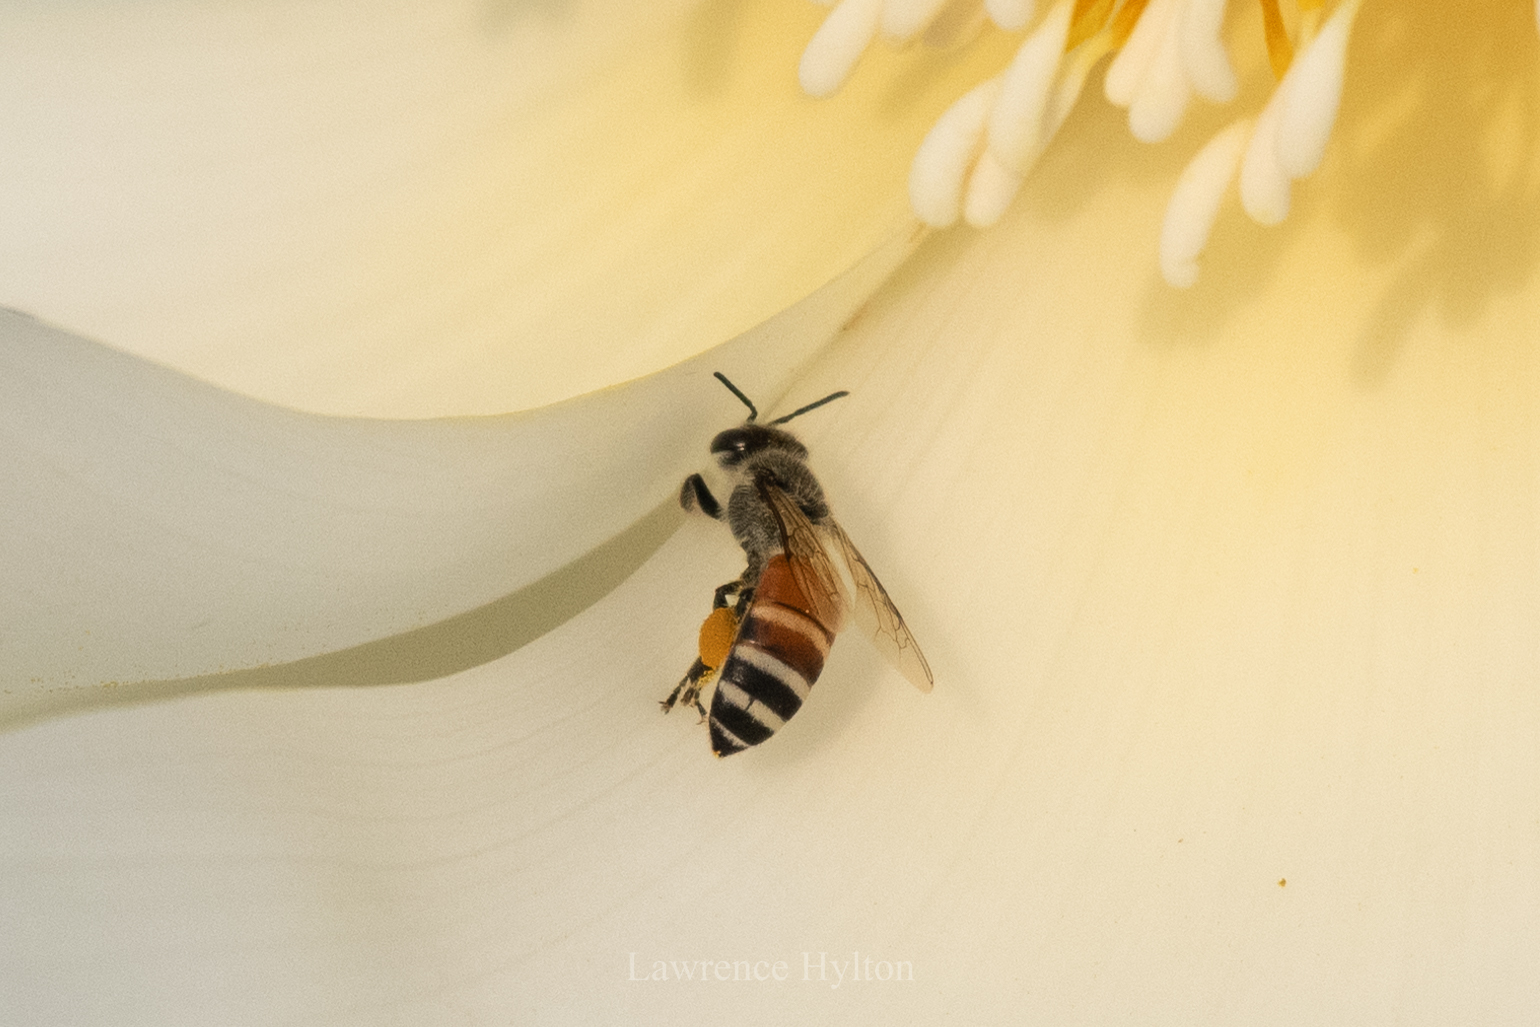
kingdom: Animalia
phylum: Arthropoda
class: Insecta
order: Hymenoptera
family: Apidae
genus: Apis
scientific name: Apis florea
